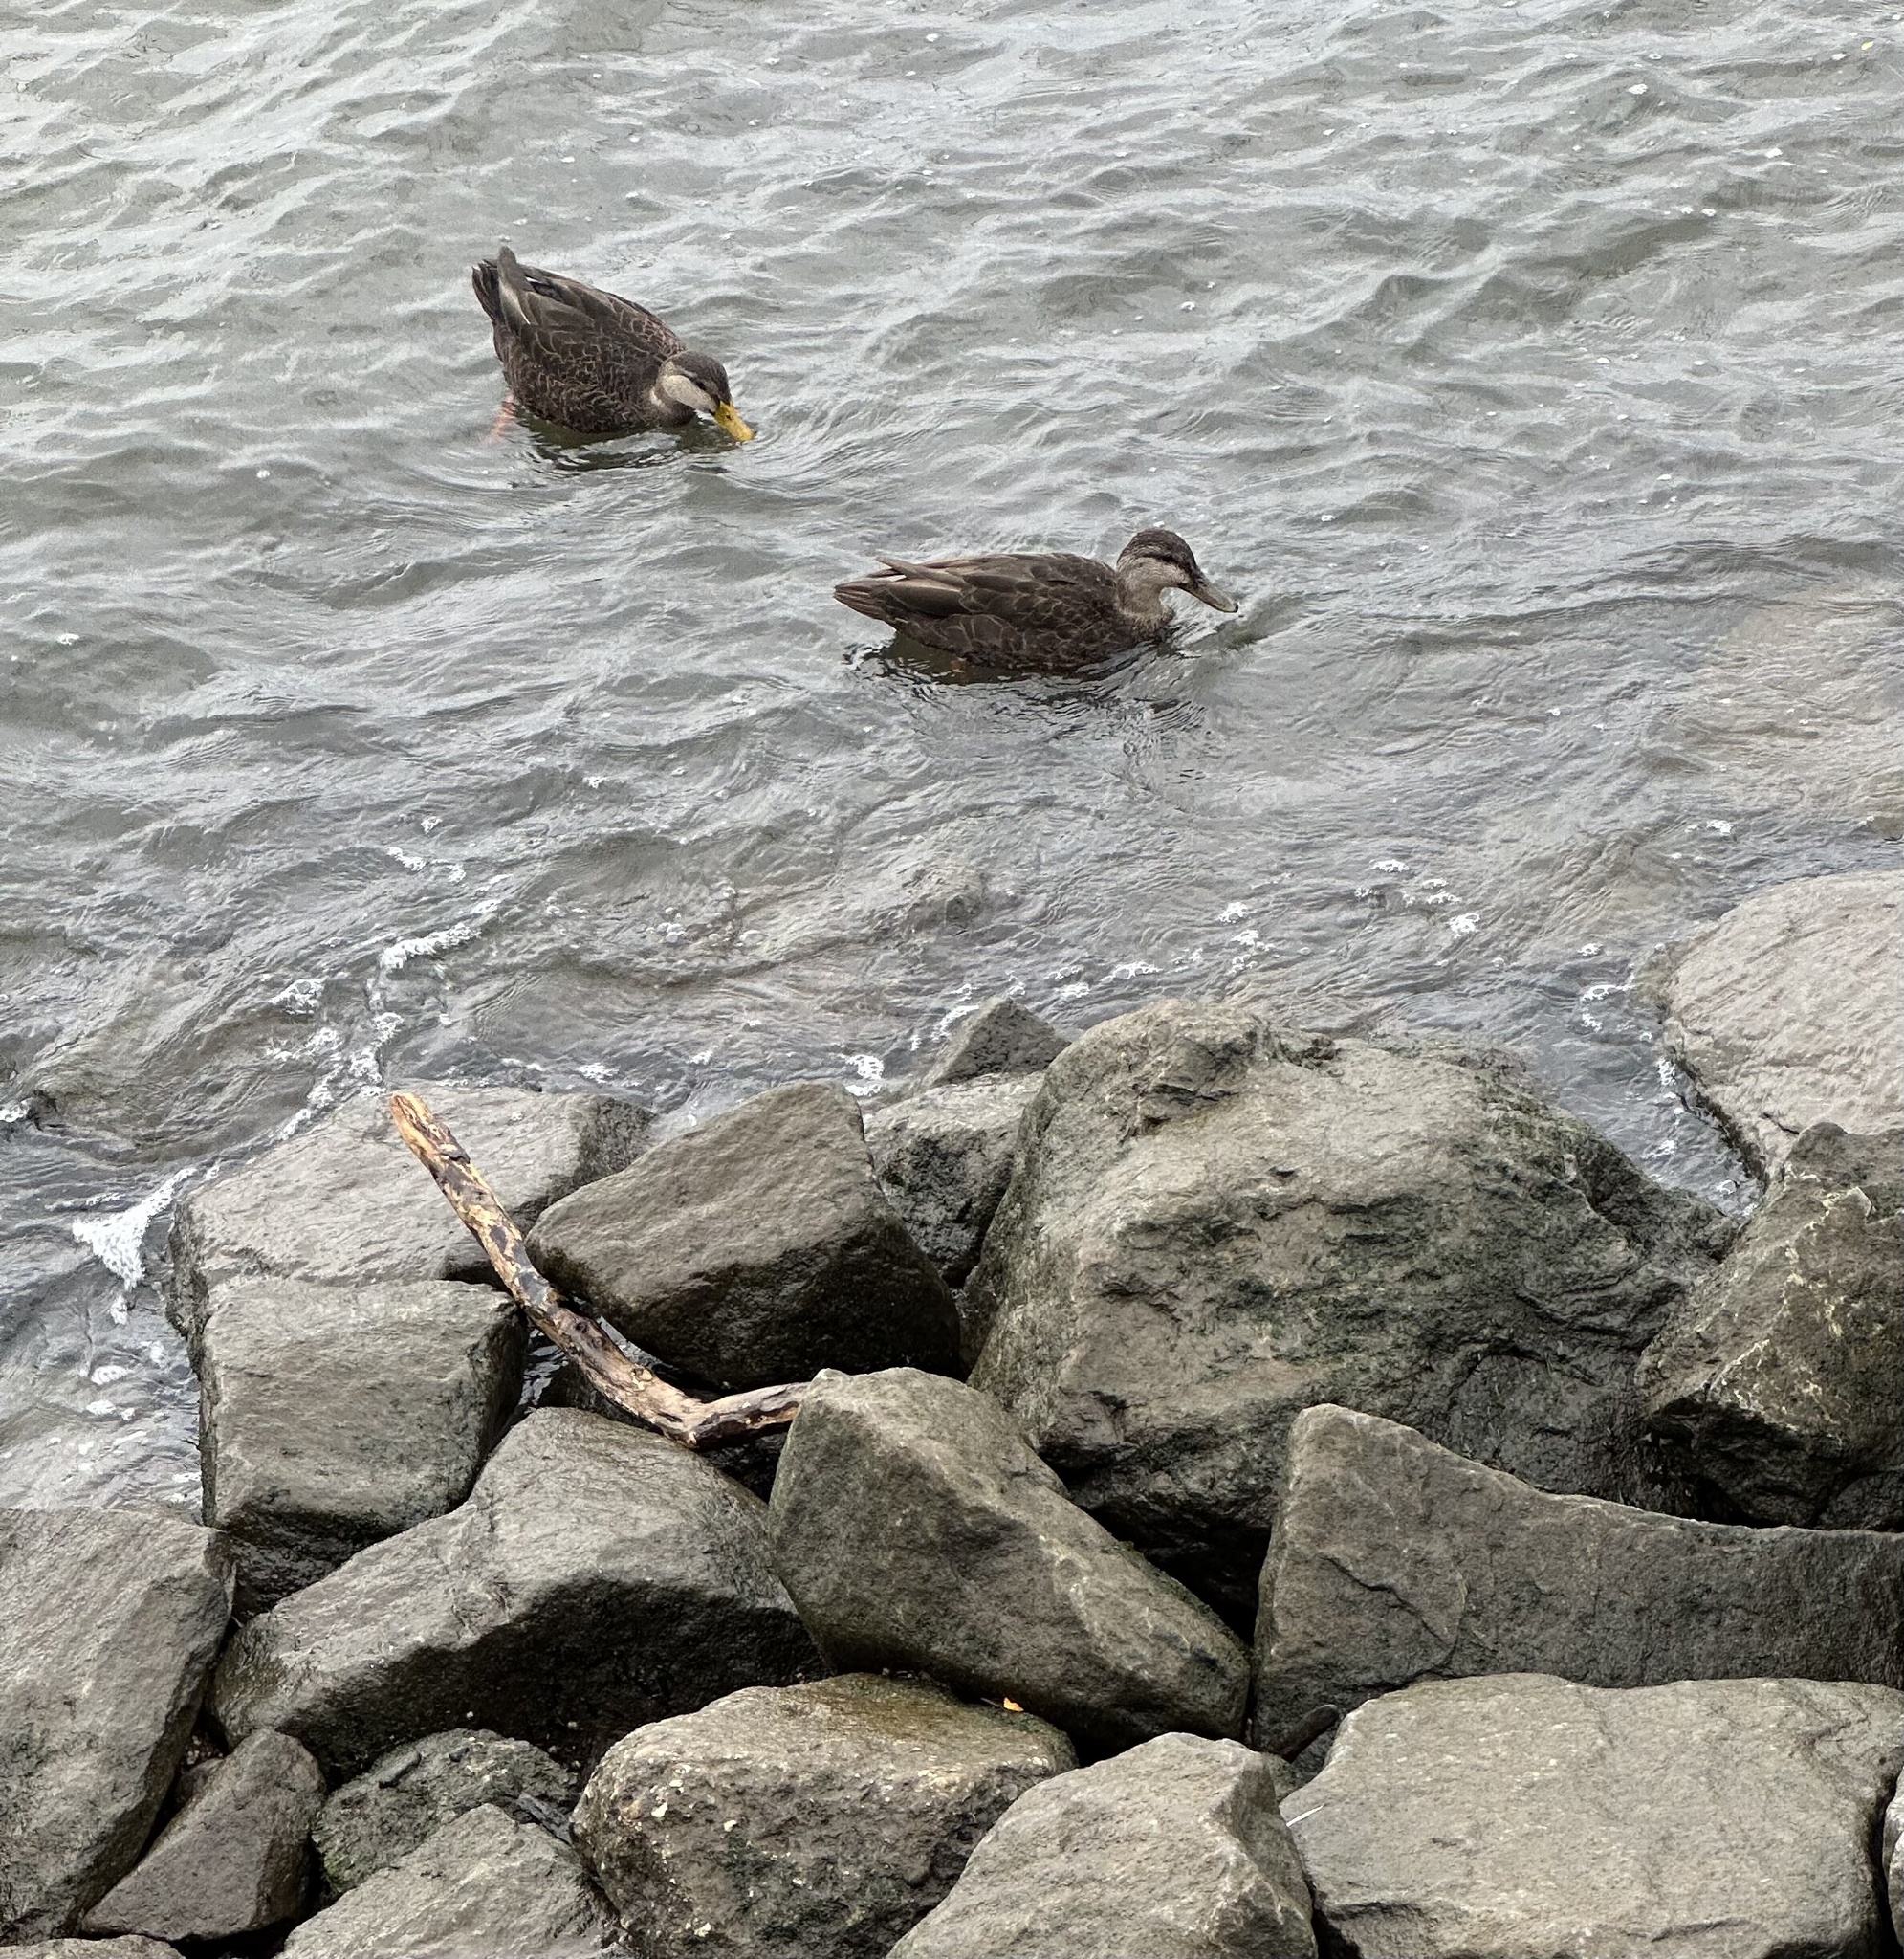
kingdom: Animalia
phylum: Chordata
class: Aves
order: Anseriformes
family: Anatidae
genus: Anas
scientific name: Anas rubripes
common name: American black duck
